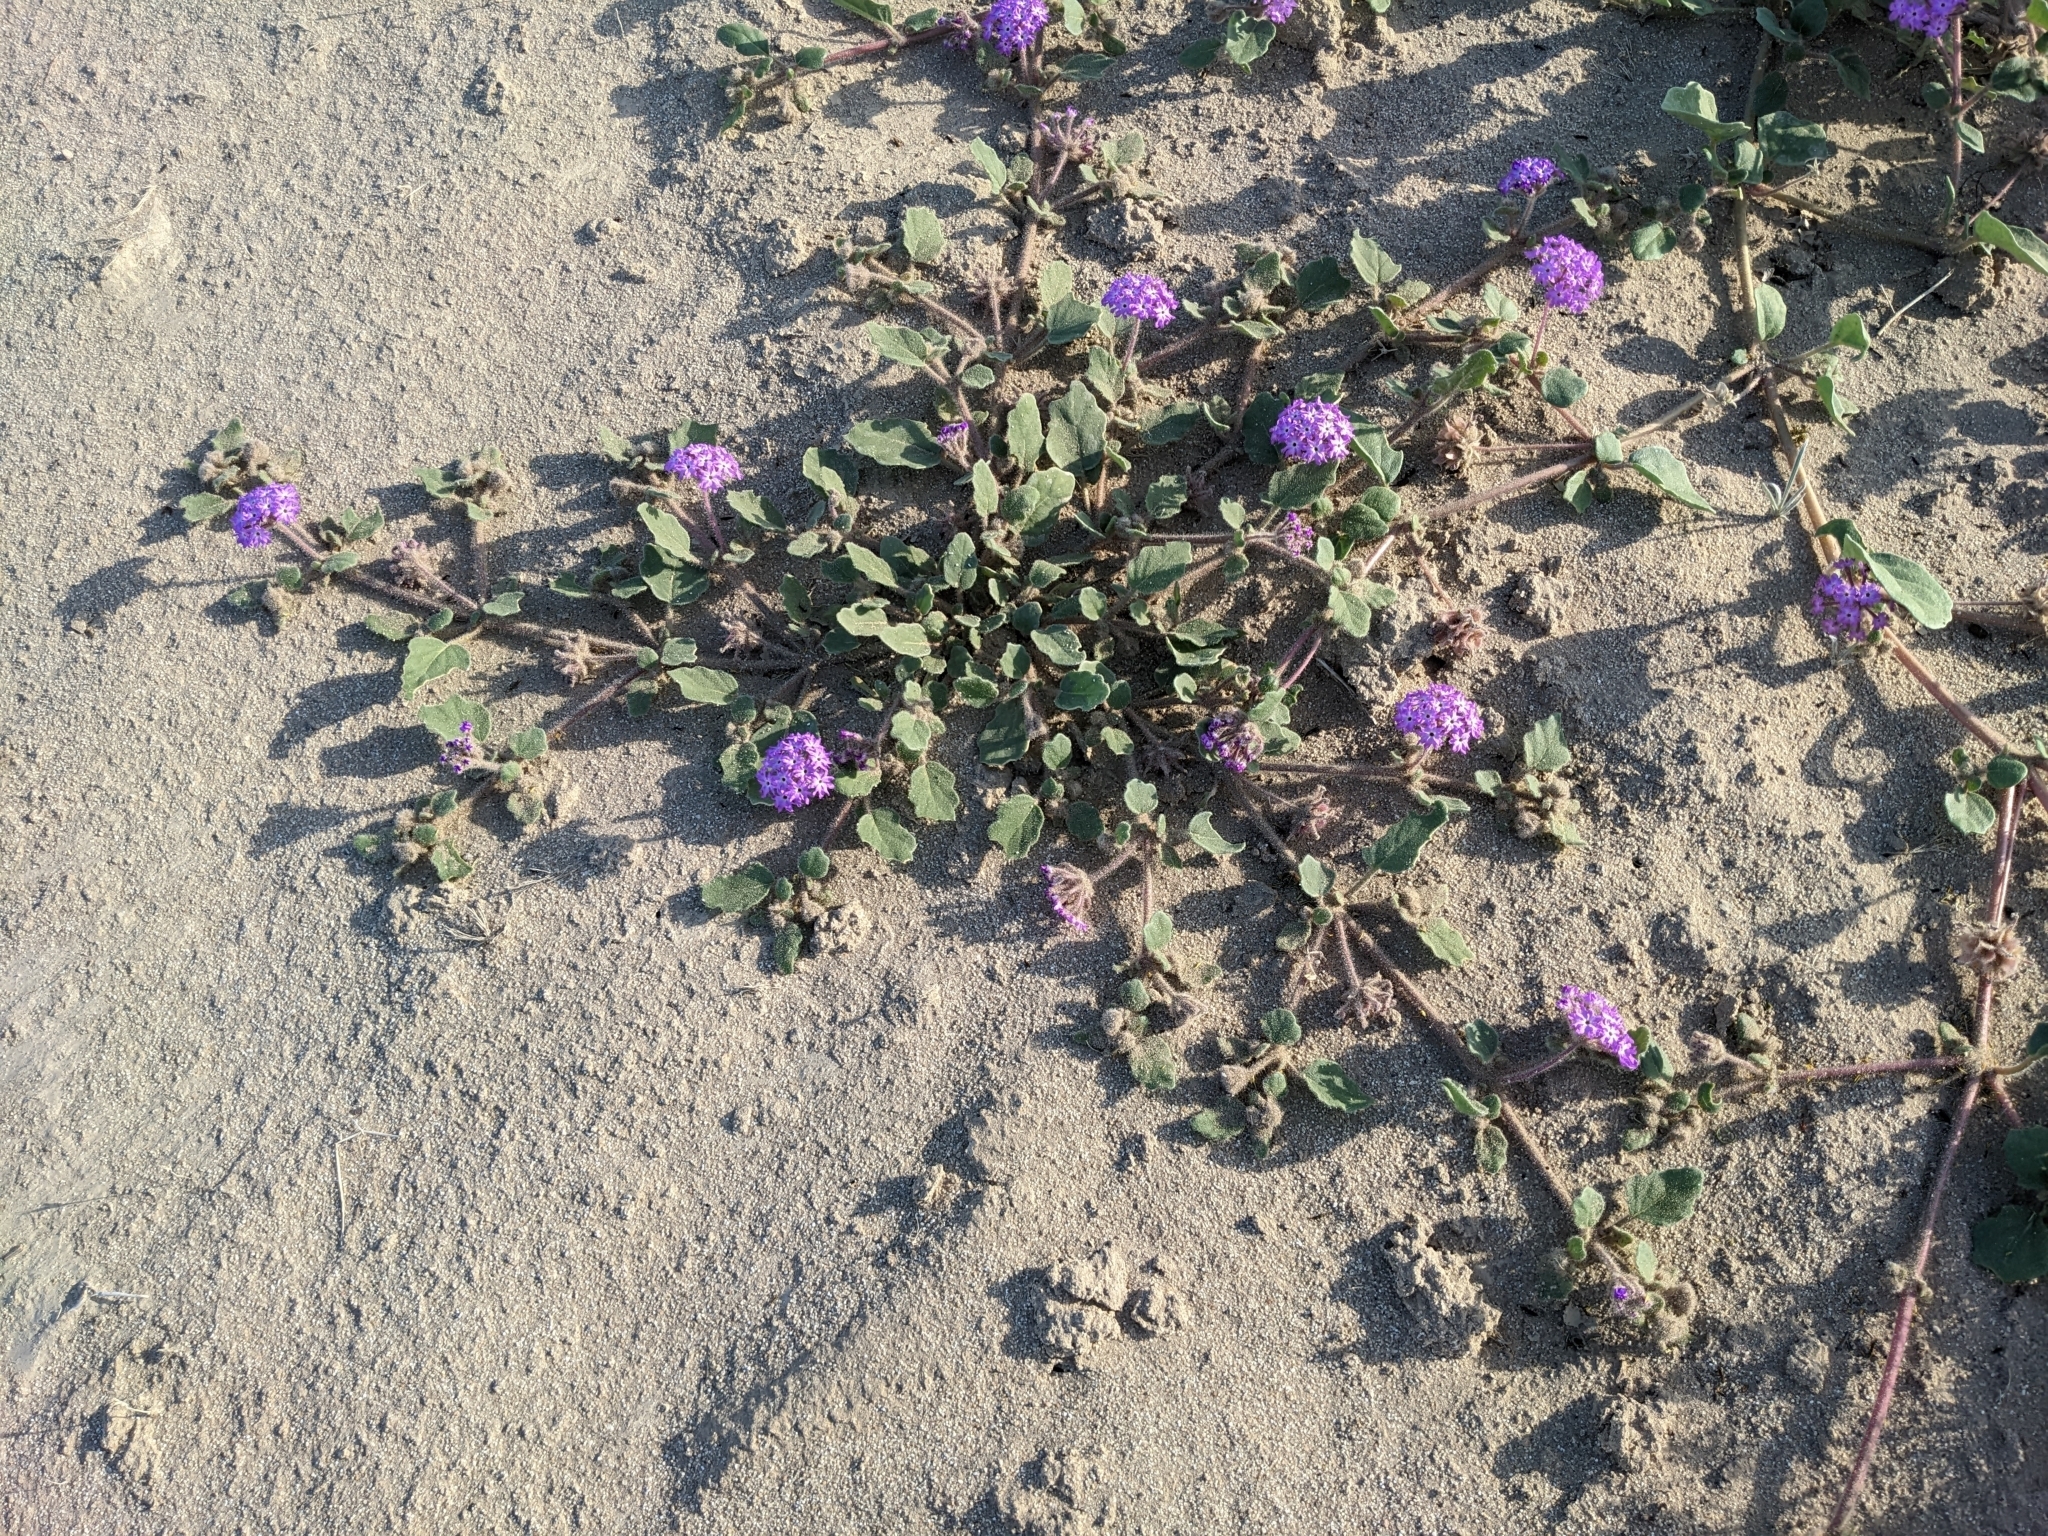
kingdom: Plantae
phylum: Tracheophyta
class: Magnoliopsida
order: Caryophyllales
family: Nyctaginaceae
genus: Abronia
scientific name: Abronia villosa
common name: Desert sand-verbena
